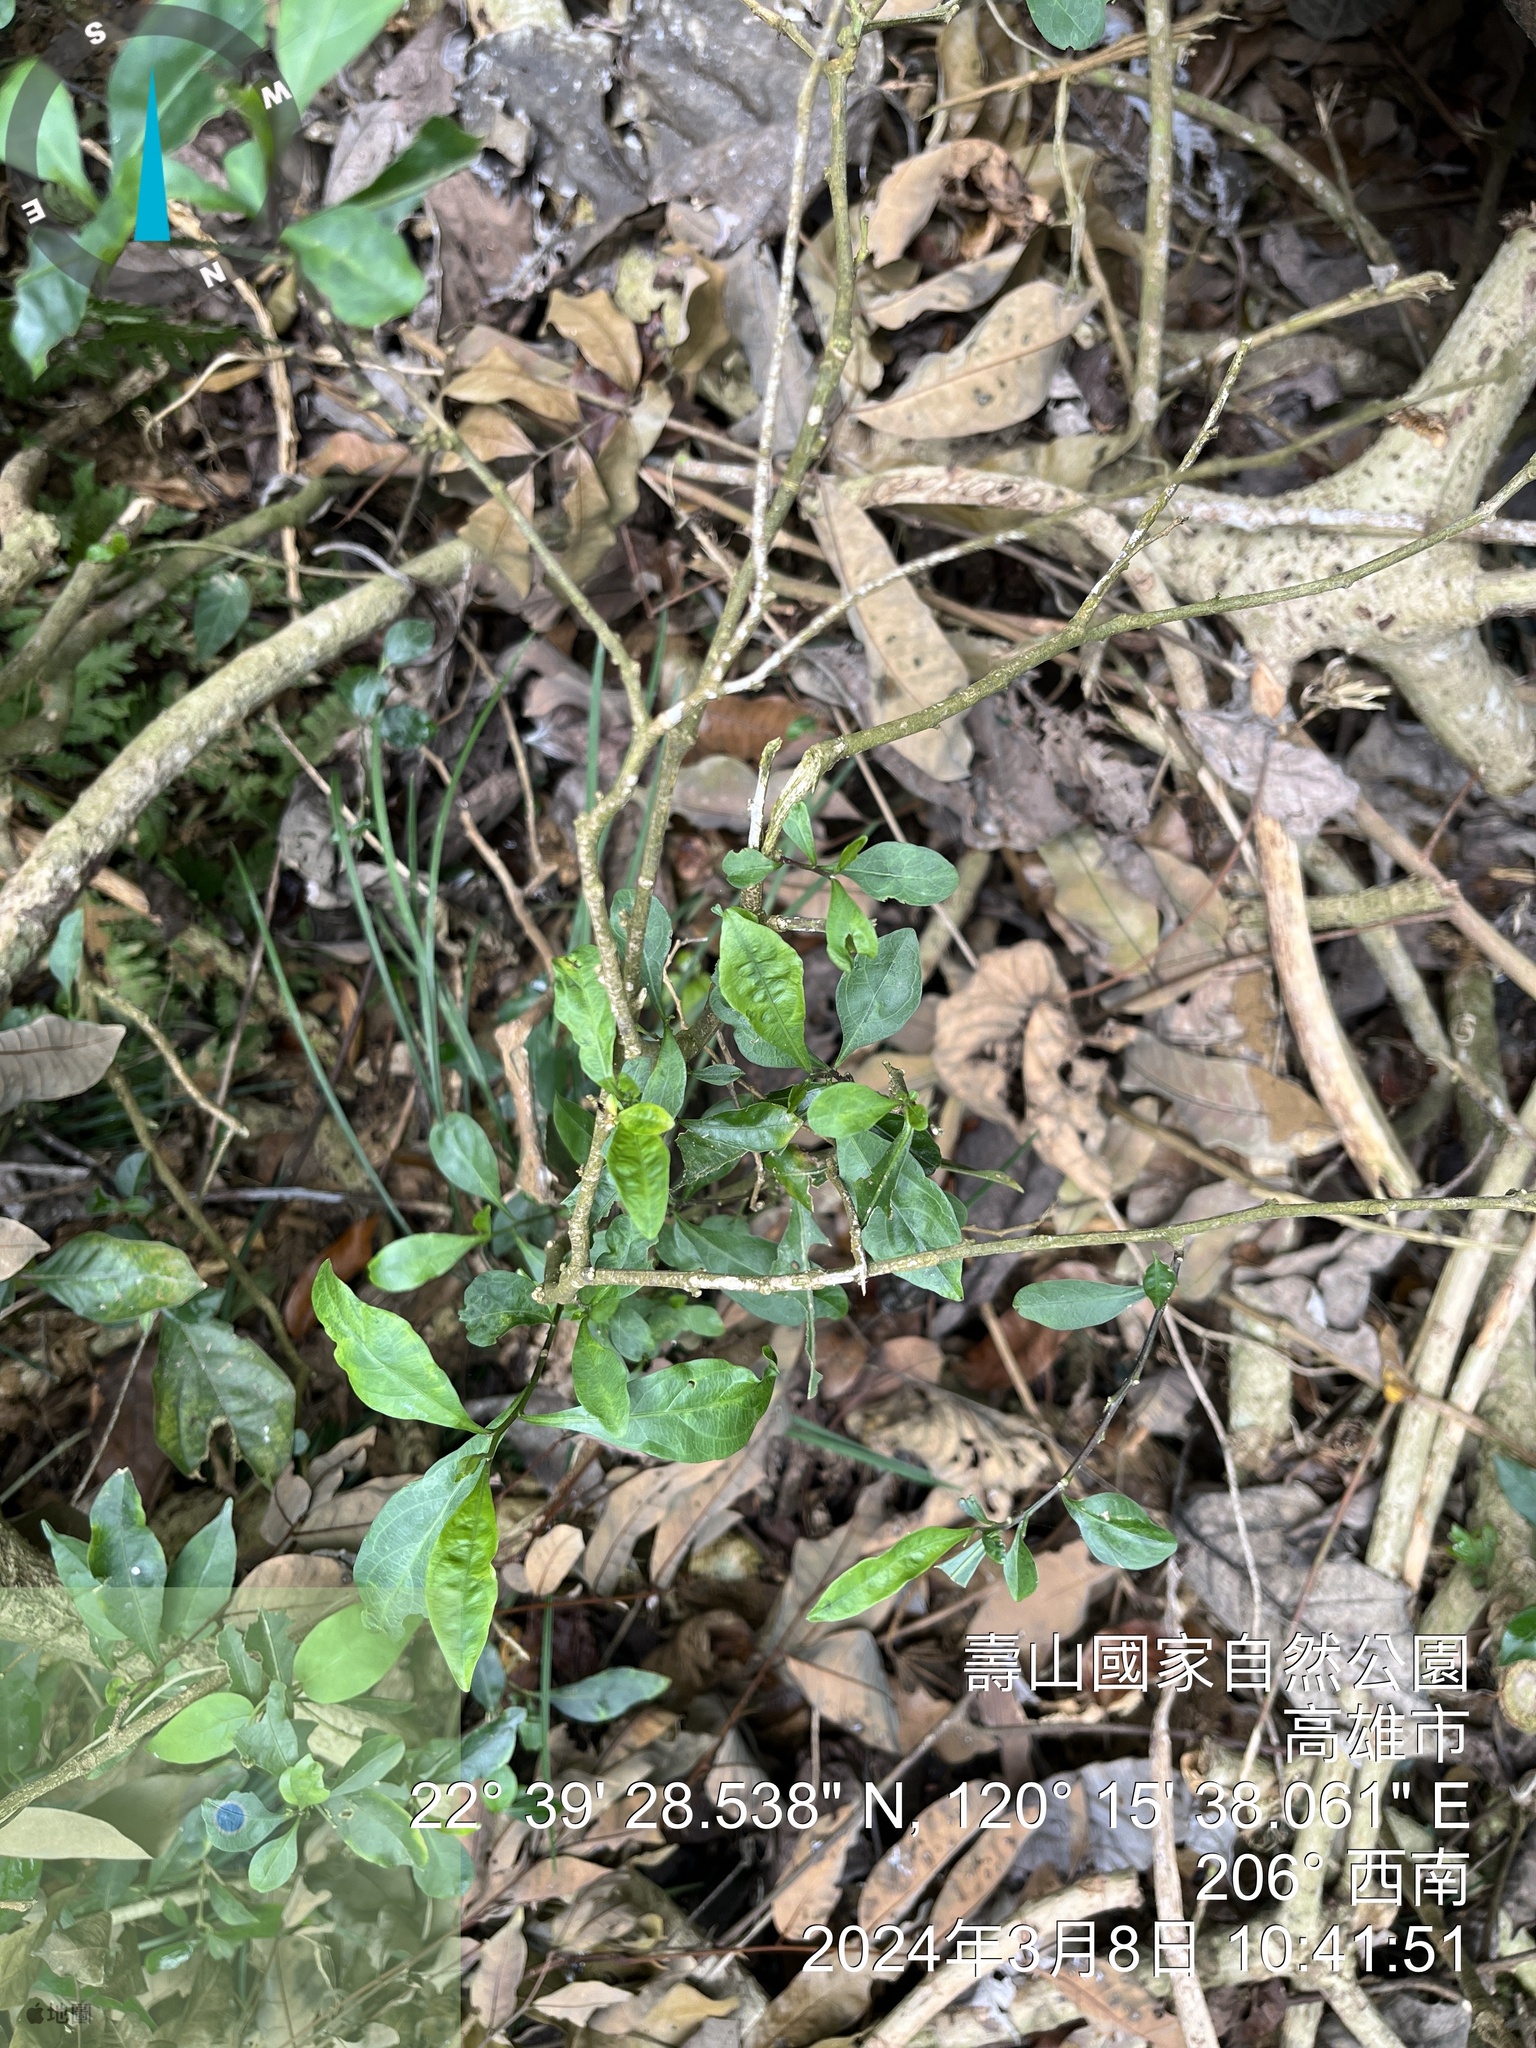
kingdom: Plantae
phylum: Tracheophyta
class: Magnoliopsida
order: Caryophyllales
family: Nyctaginaceae
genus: Pisonia
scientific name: Pisonia aculeata
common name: Cockspur vine
